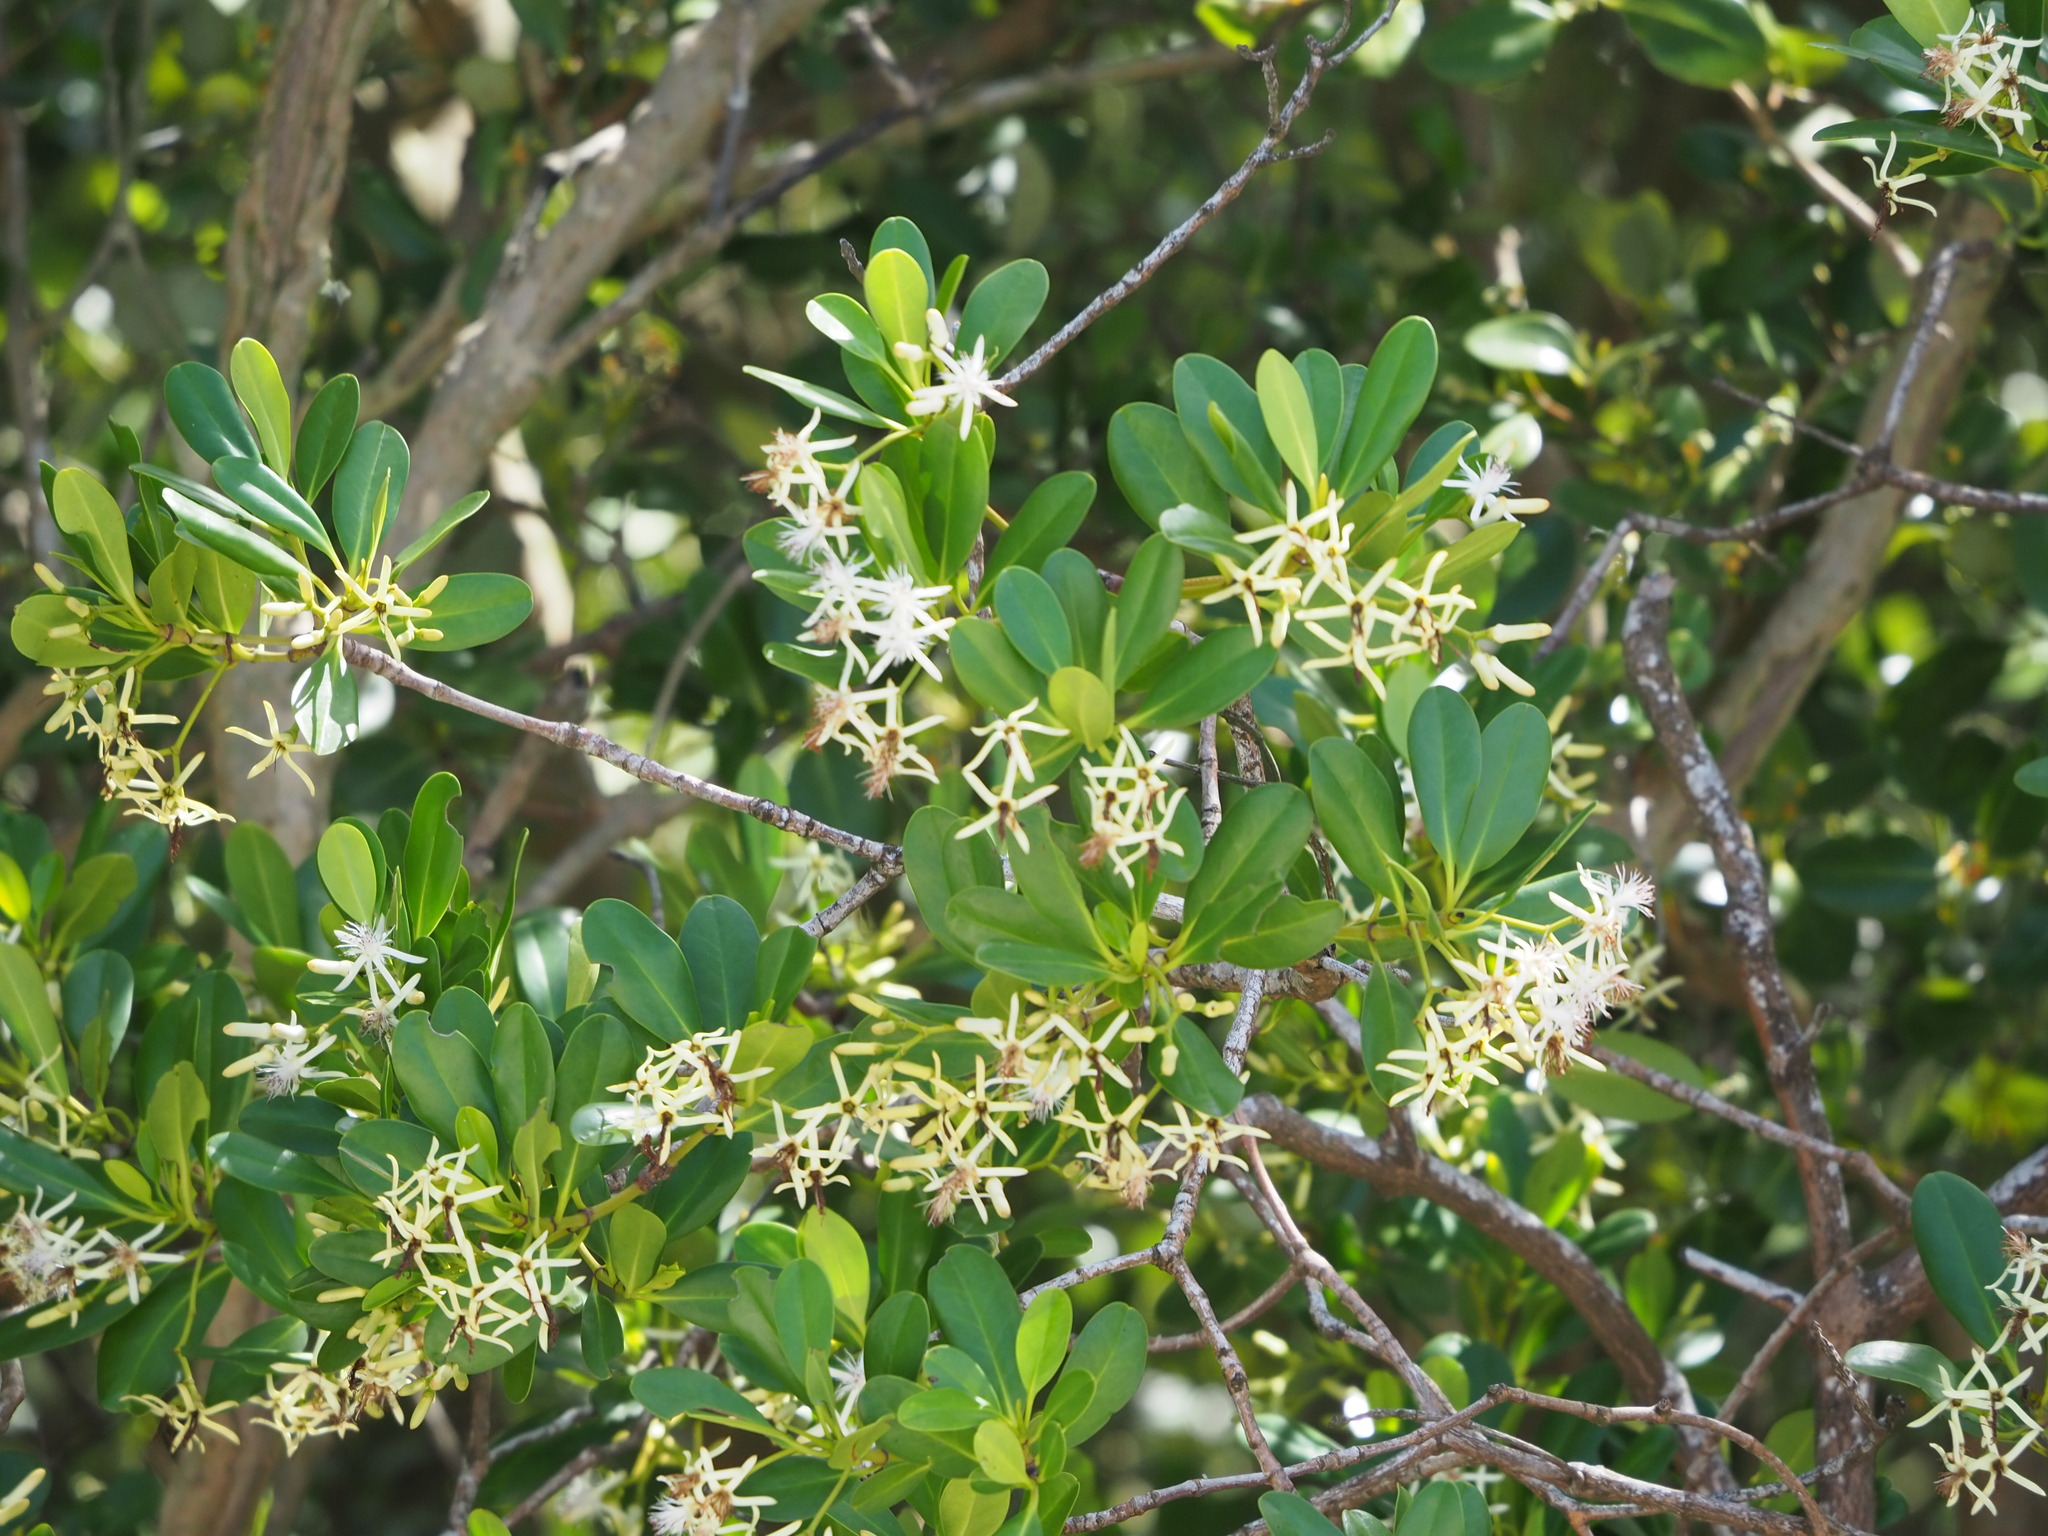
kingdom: Plantae
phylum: Tracheophyta
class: Magnoliopsida
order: Malpighiales
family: Rhizophoraceae
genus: Kandelia
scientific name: Kandelia obovata
